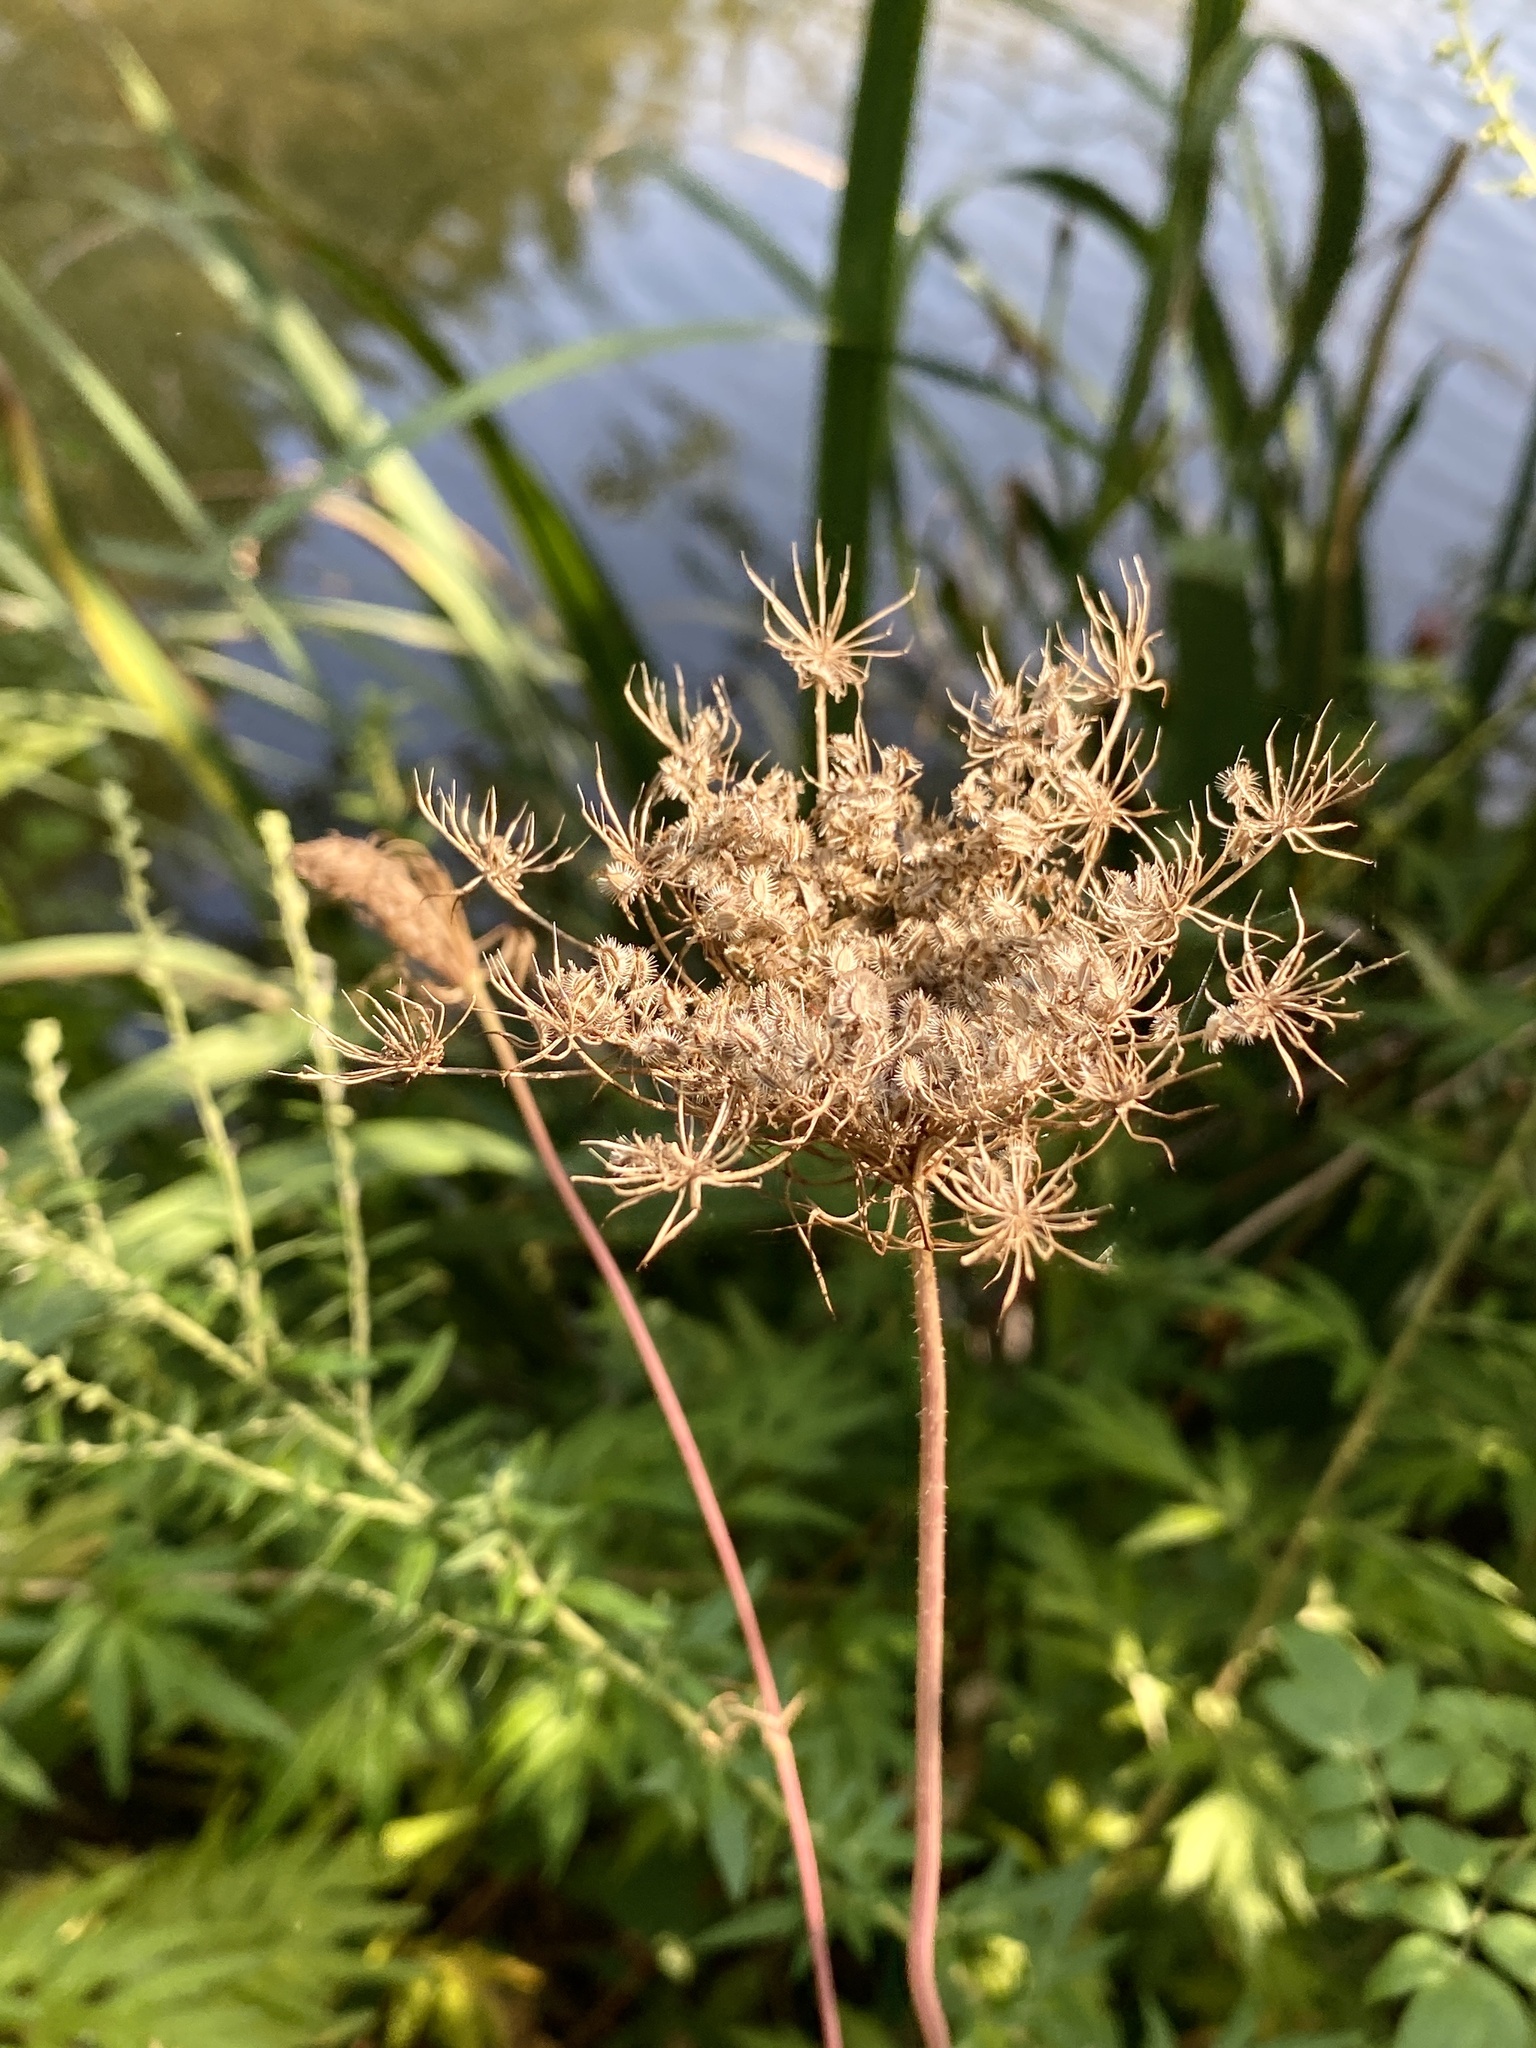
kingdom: Plantae
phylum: Tracheophyta
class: Magnoliopsida
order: Apiales
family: Apiaceae
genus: Daucus
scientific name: Daucus carota
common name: Wild carrot
